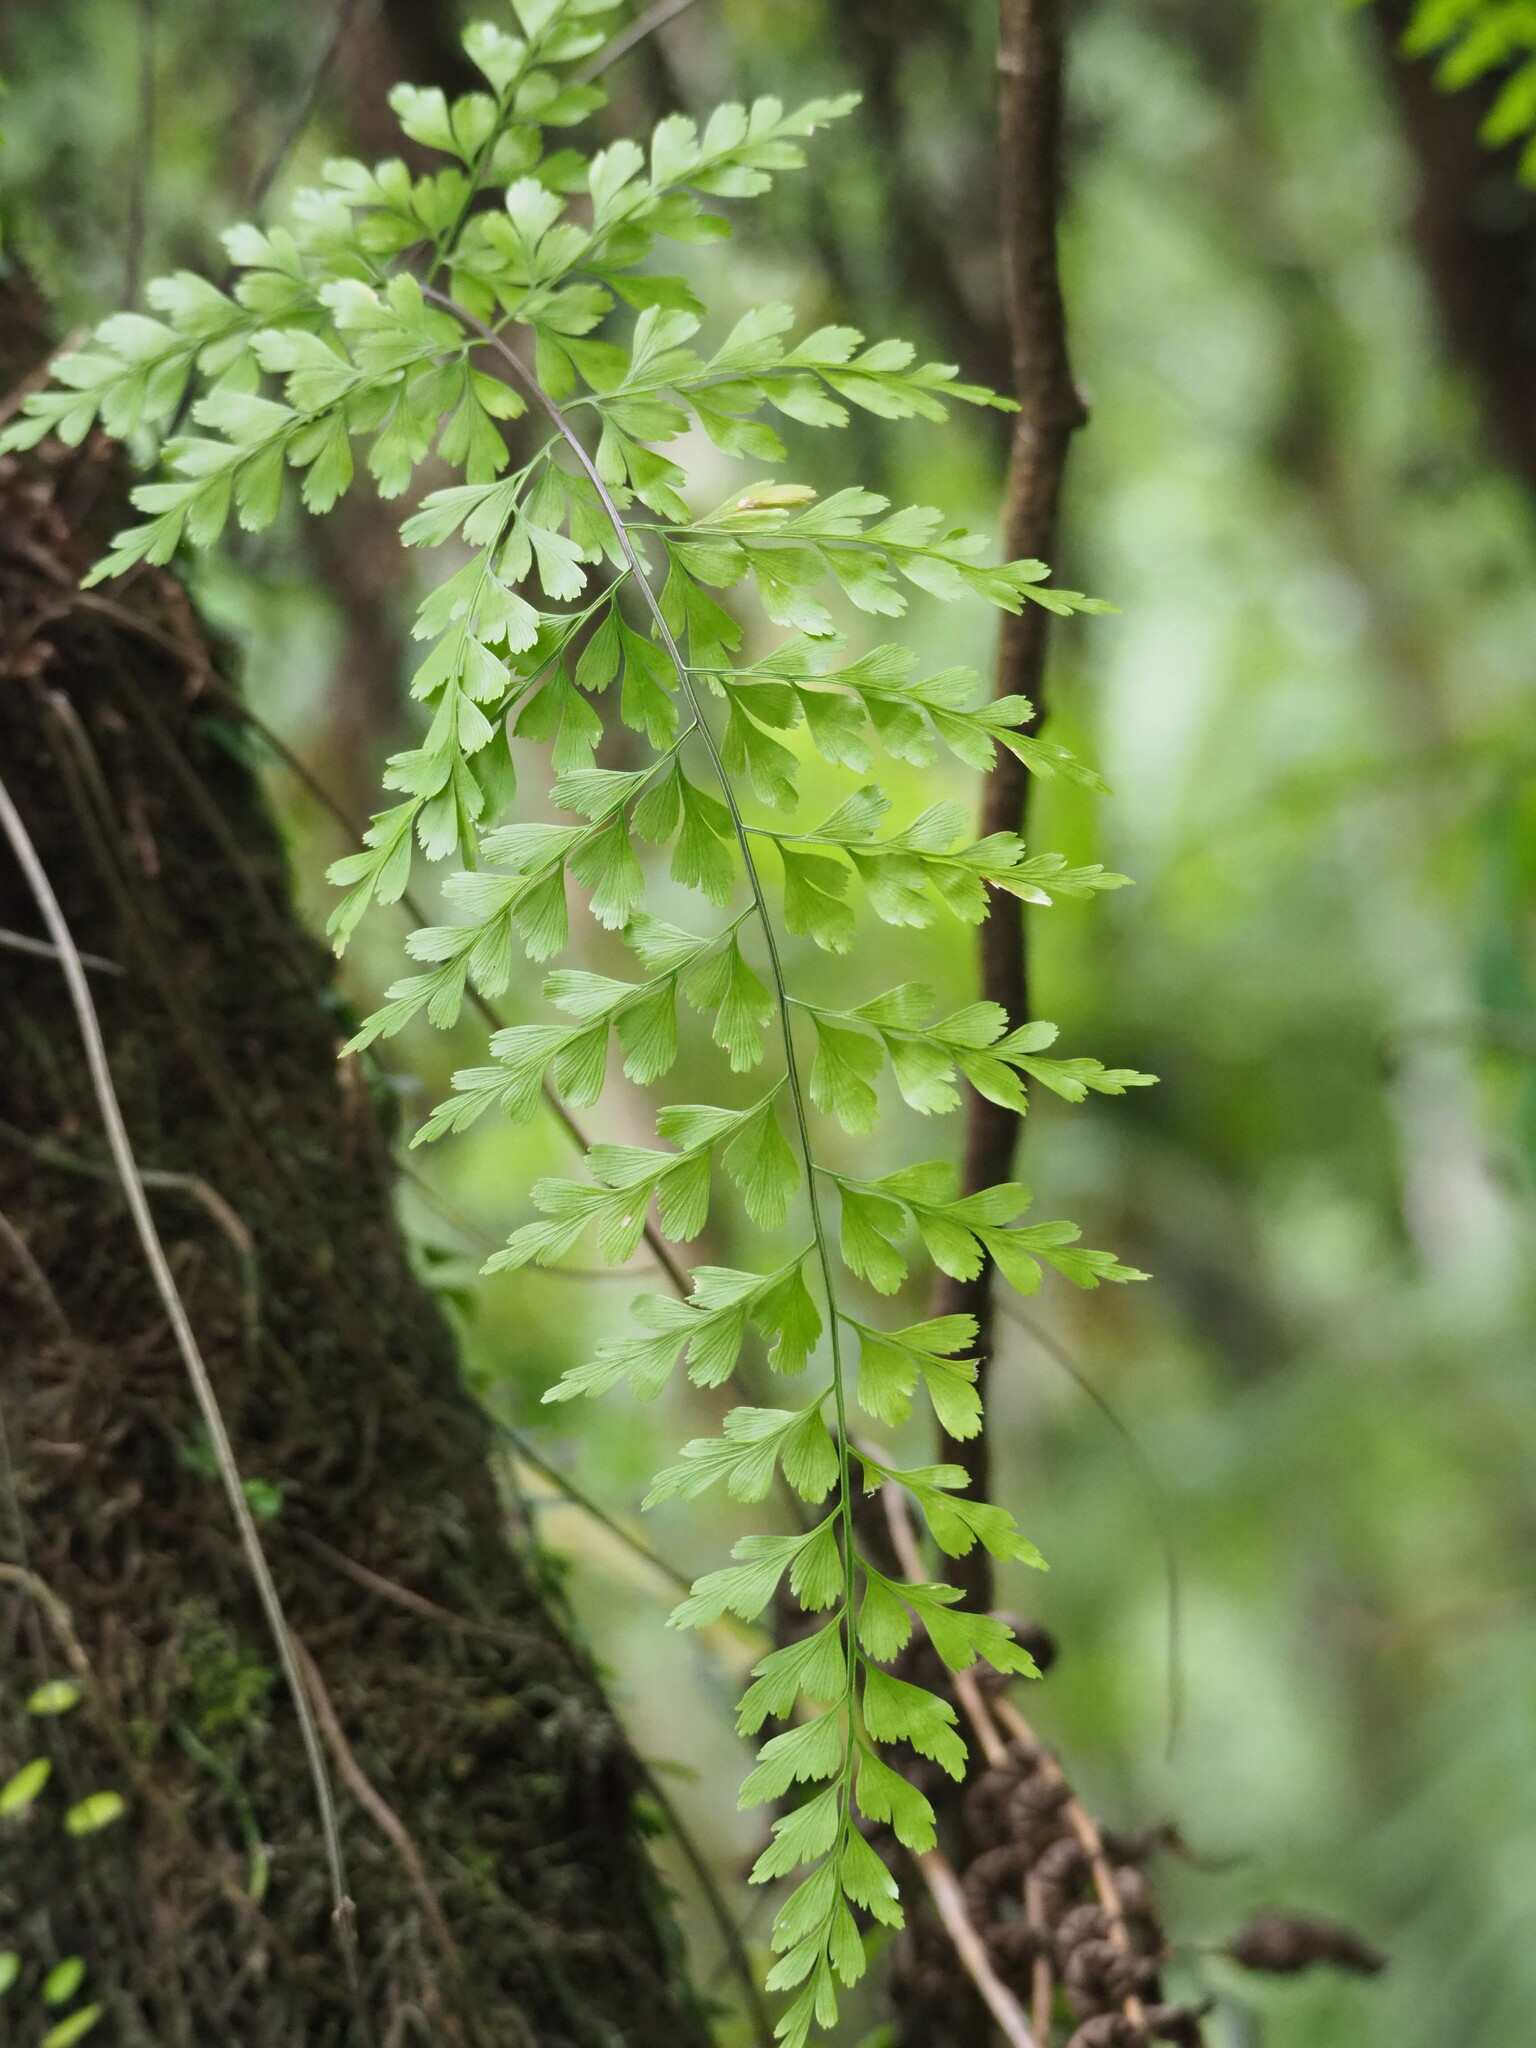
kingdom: Plantae
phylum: Tracheophyta
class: Polypodiopsida
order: Polypodiales
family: Aspleniaceae
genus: Asplenium
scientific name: Asplenium pseudolaserpitiifolium
